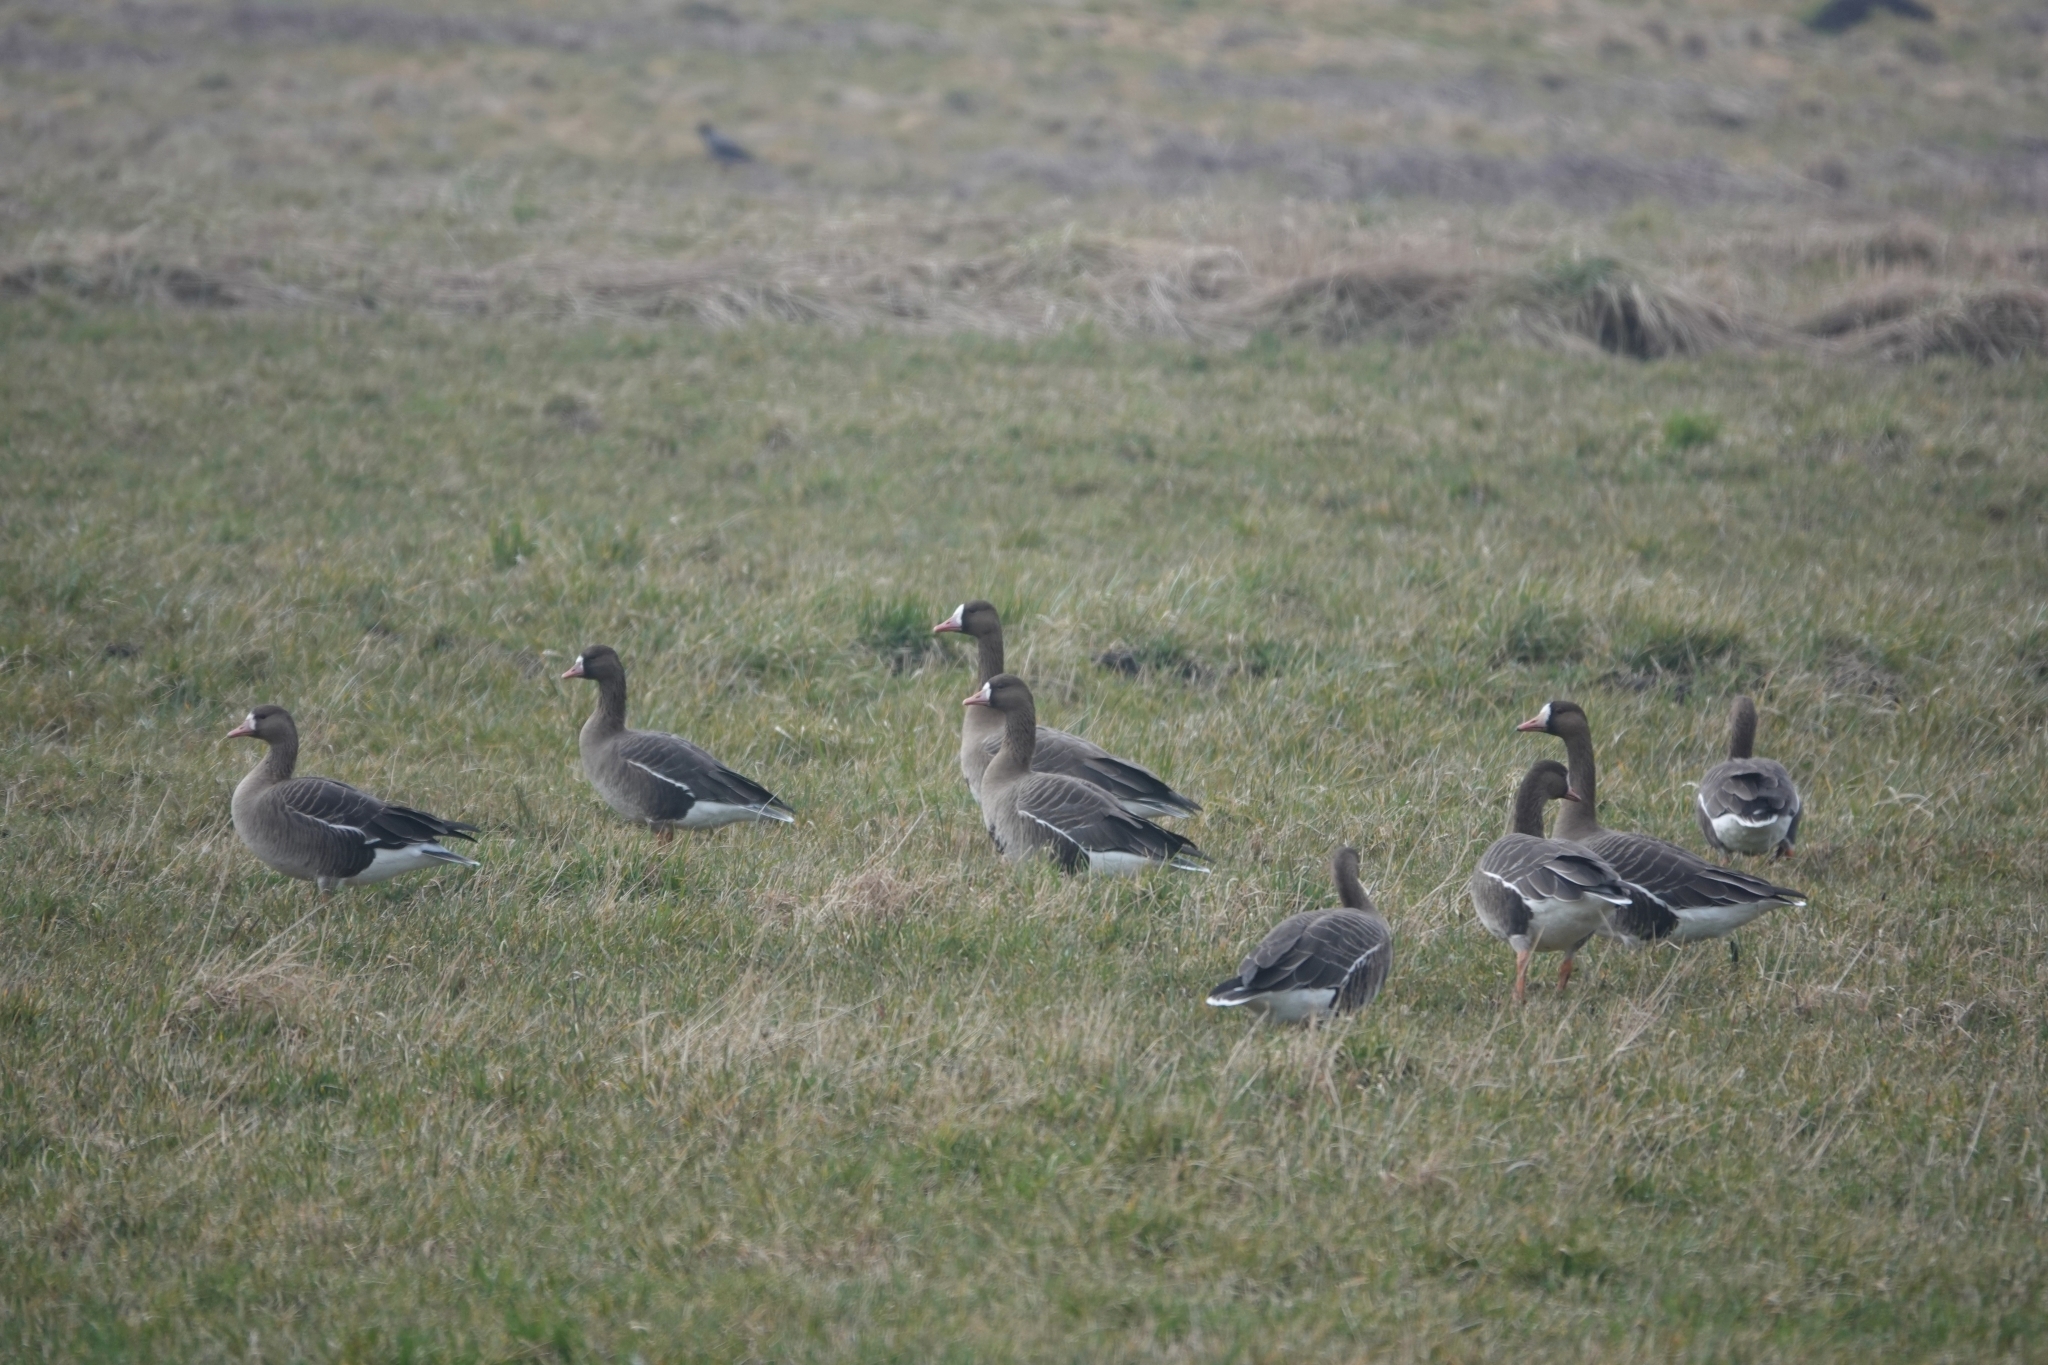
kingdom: Animalia
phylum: Chordata
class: Aves
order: Anseriformes
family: Anatidae
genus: Anser
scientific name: Anser albifrons
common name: Greater white-fronted goose
